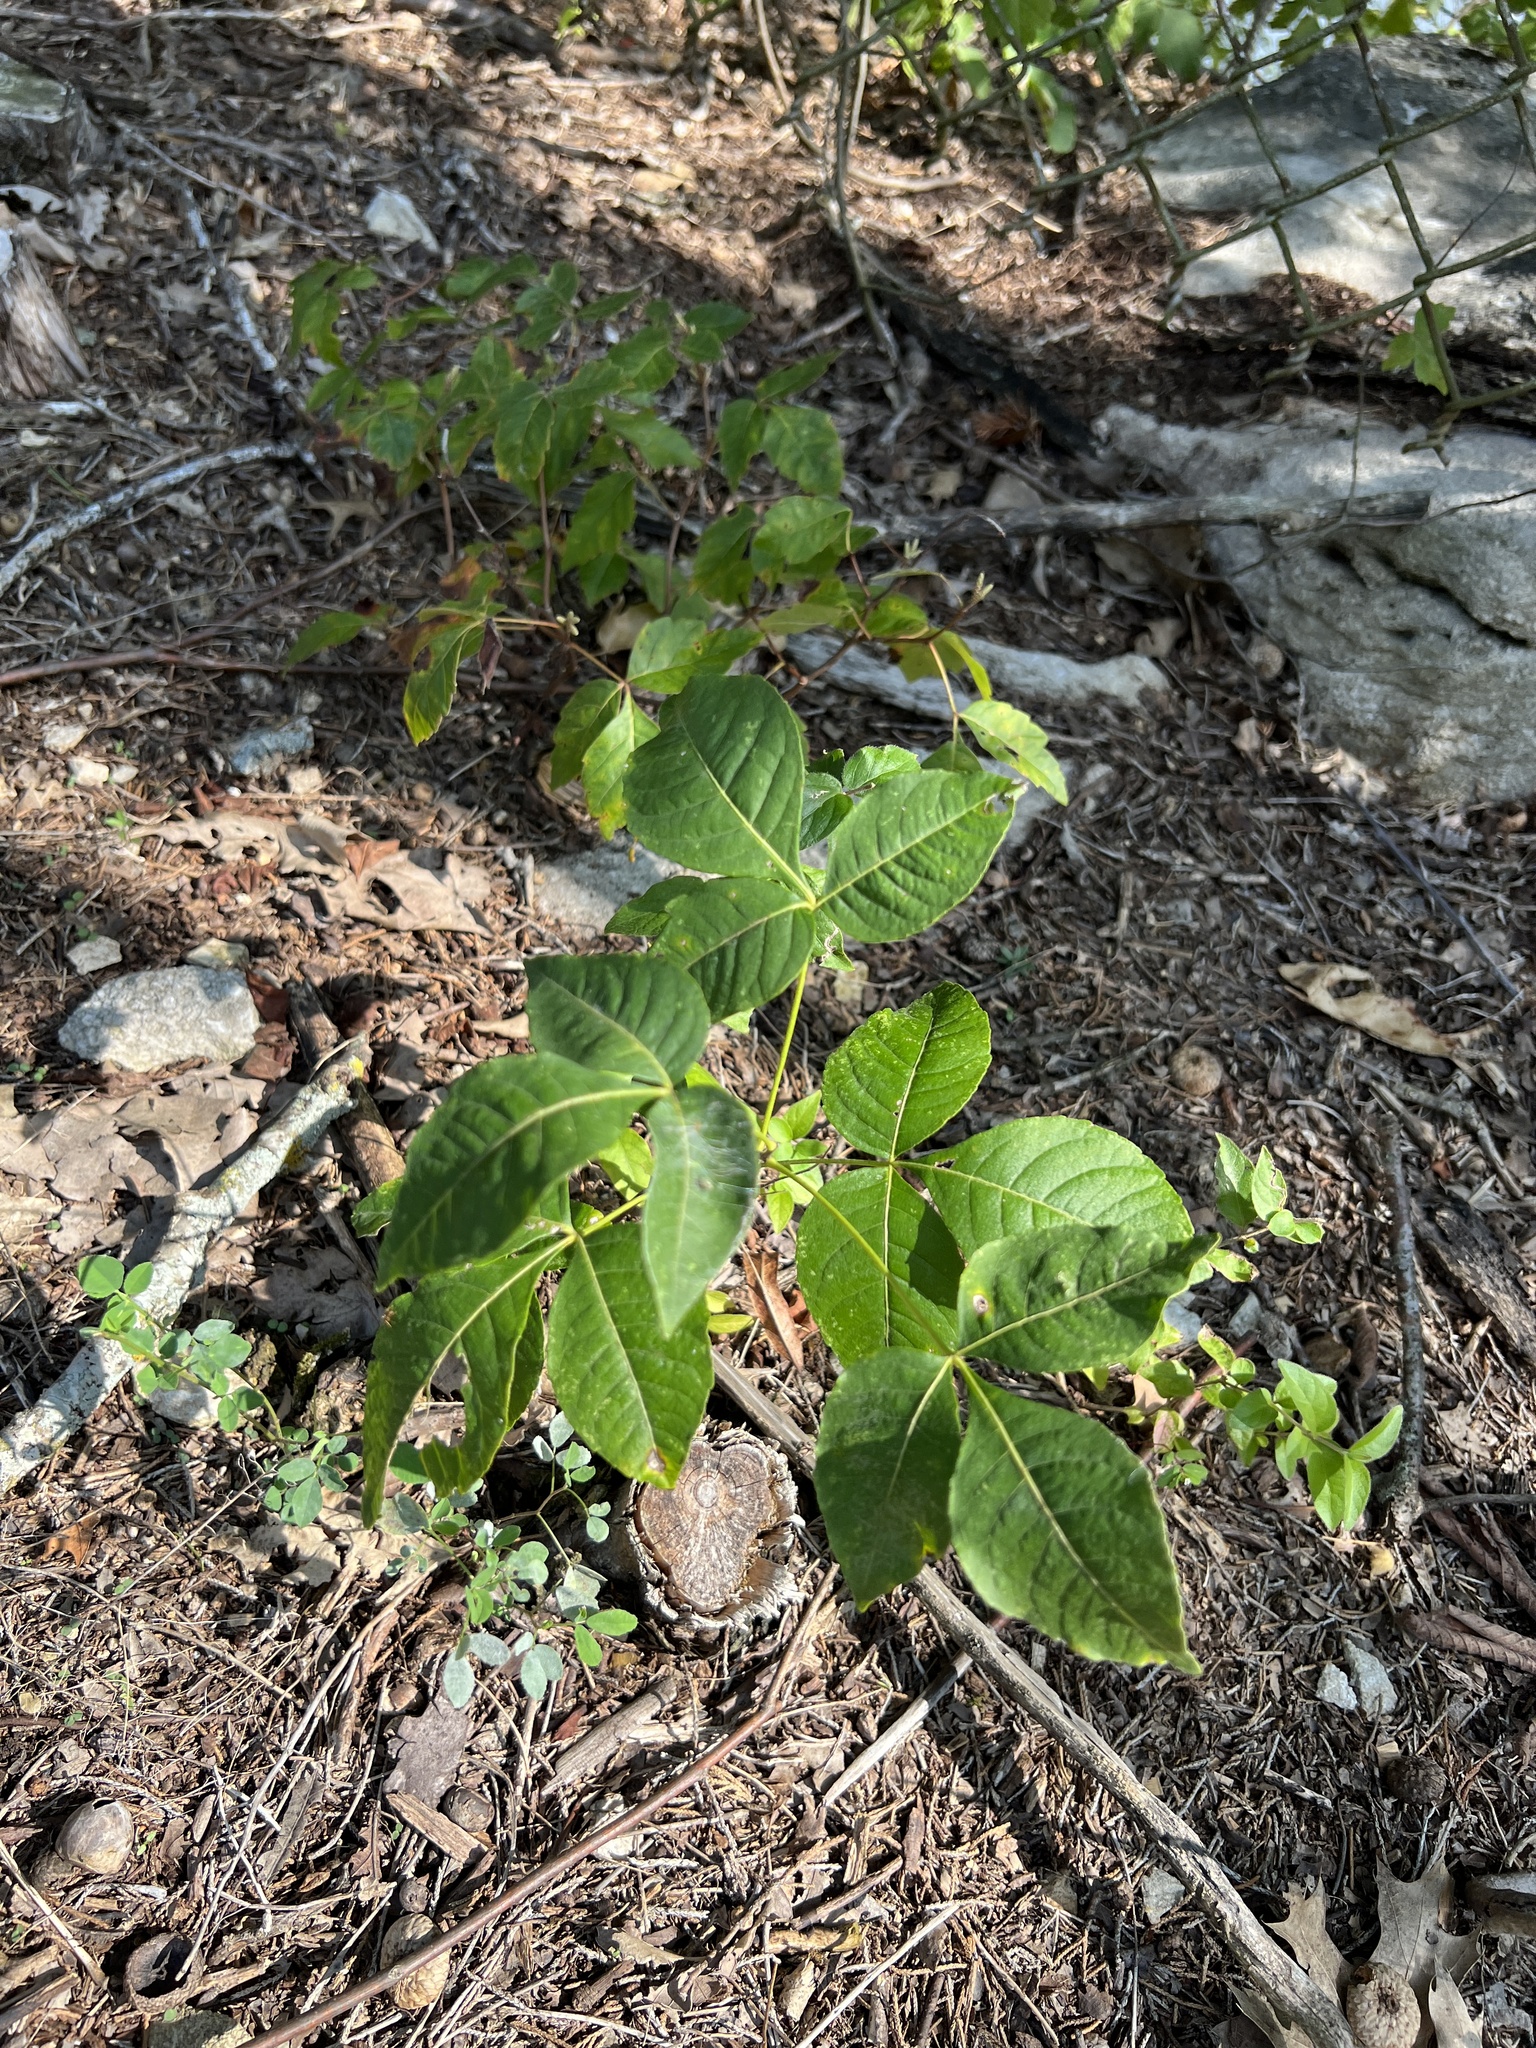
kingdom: Plantae
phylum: Tracheophyta
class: Magnoliopsida
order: Sapindales
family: Rutaceae
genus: Ptelea
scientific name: Ptelea trifoliata
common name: Common hop-tree
